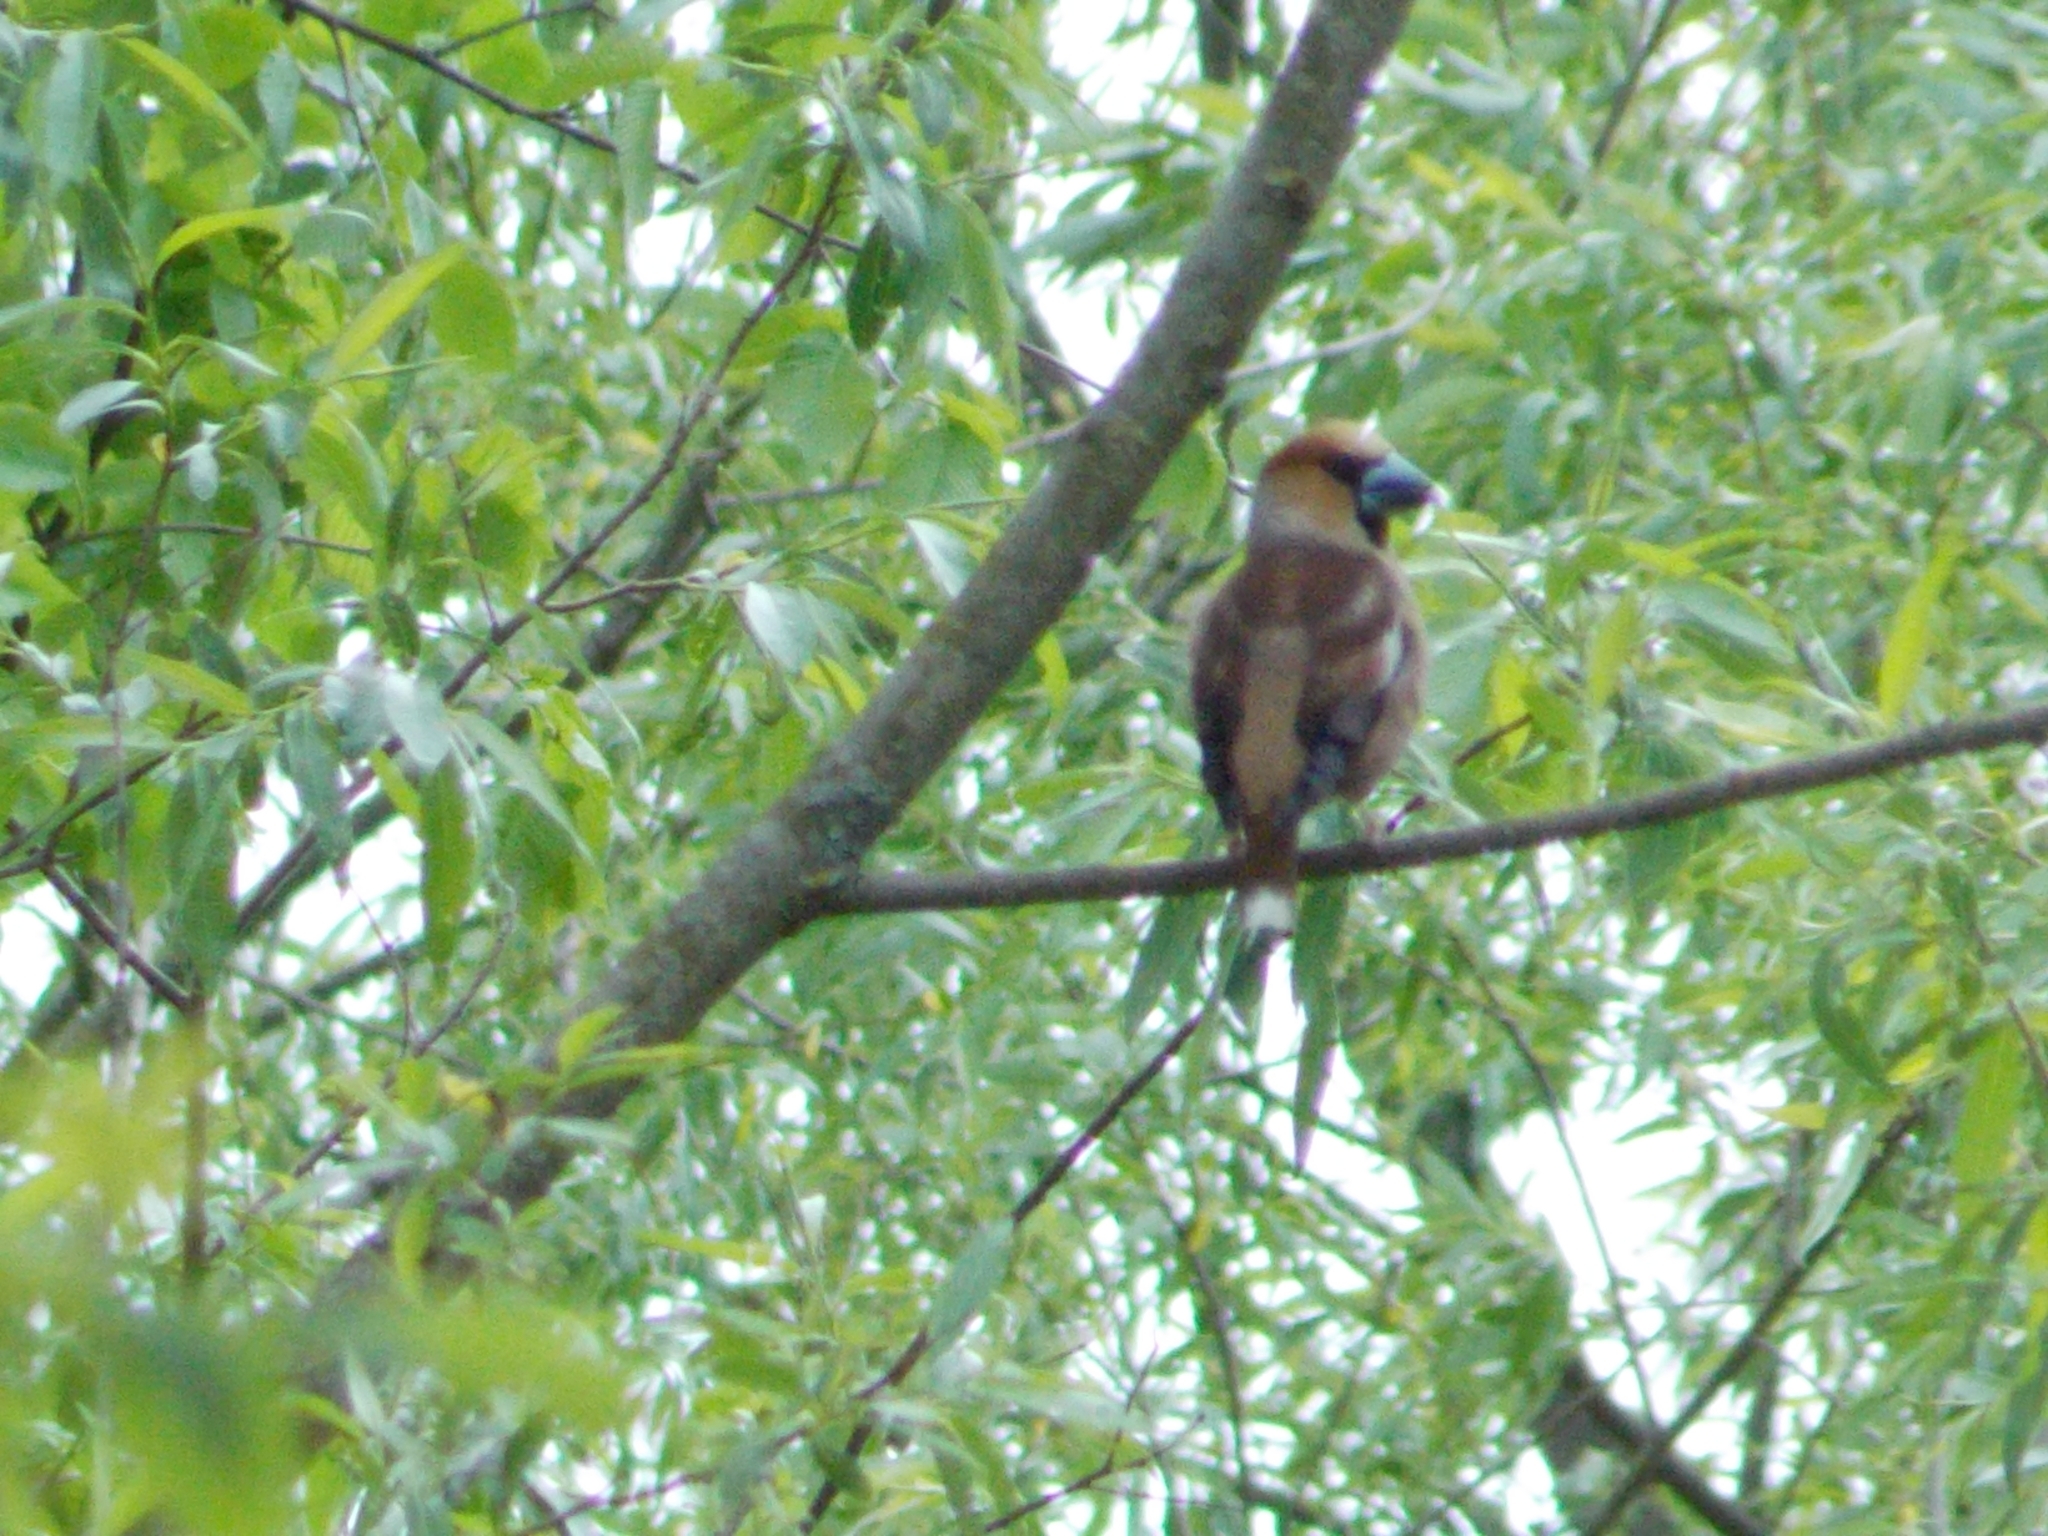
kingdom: Animalia
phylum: Chordata
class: Aves
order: Passeriformes
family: Fringillidae
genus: Coccothraustes
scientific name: Coccothraustes coccothraustes
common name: Hawfinch
